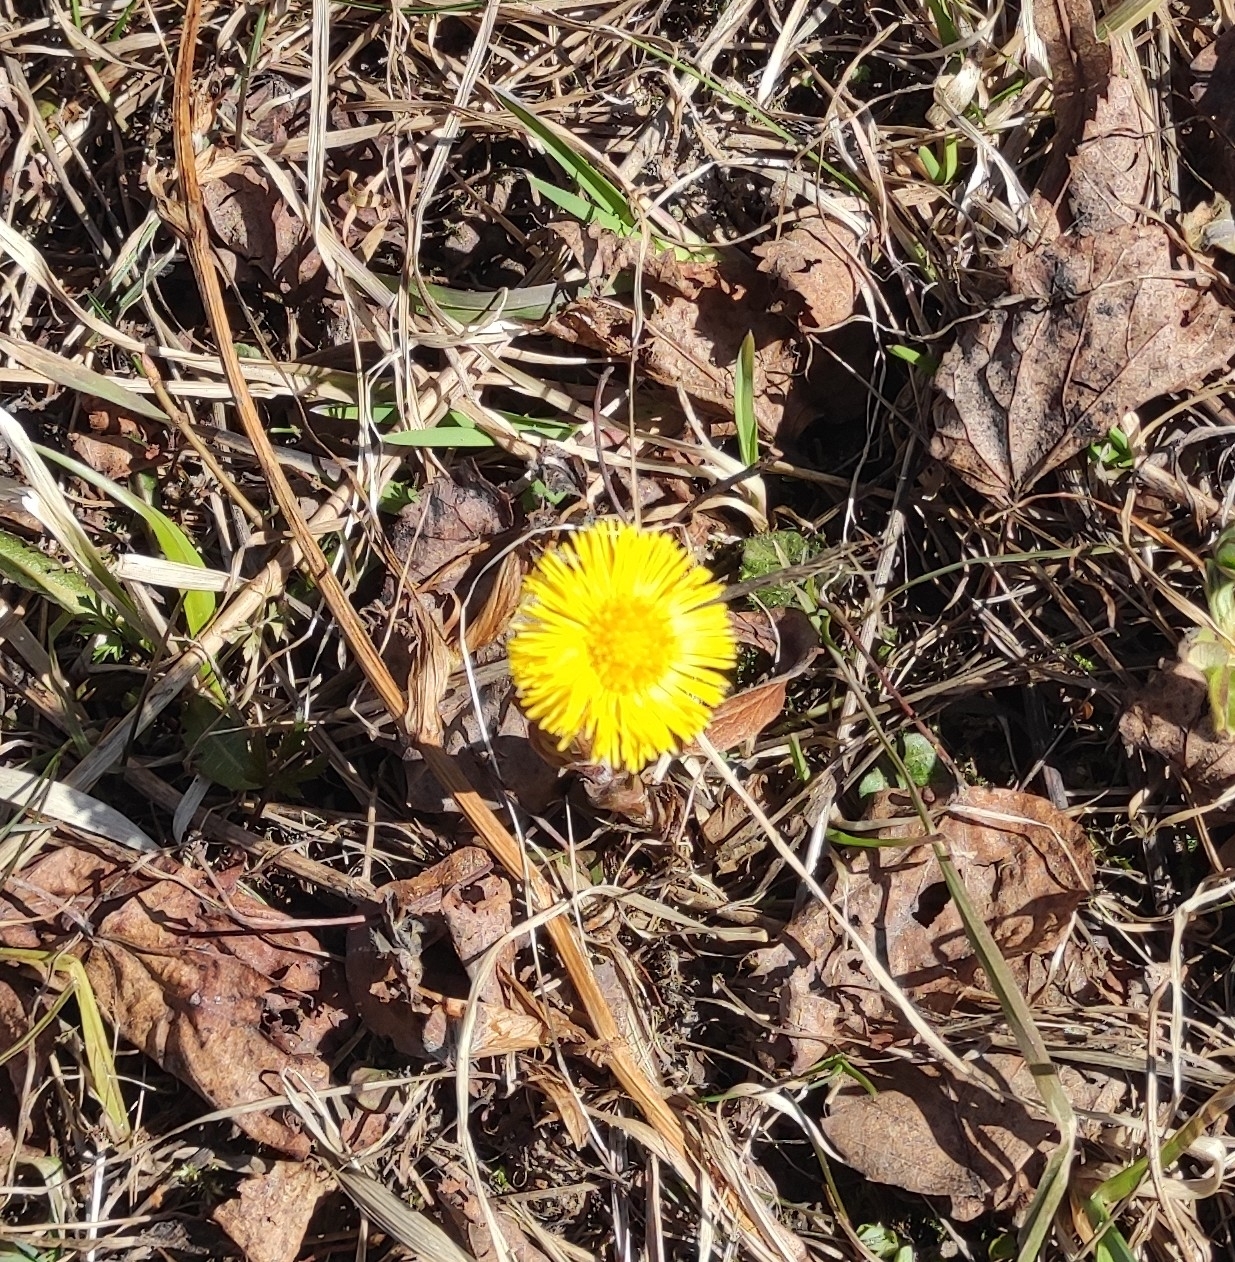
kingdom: Plantae
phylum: Tracheophyta
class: Magnoliopsida
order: Asterales
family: Asteraceae
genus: Tussilago
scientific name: Tussilago farfara
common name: Coltsfoot
